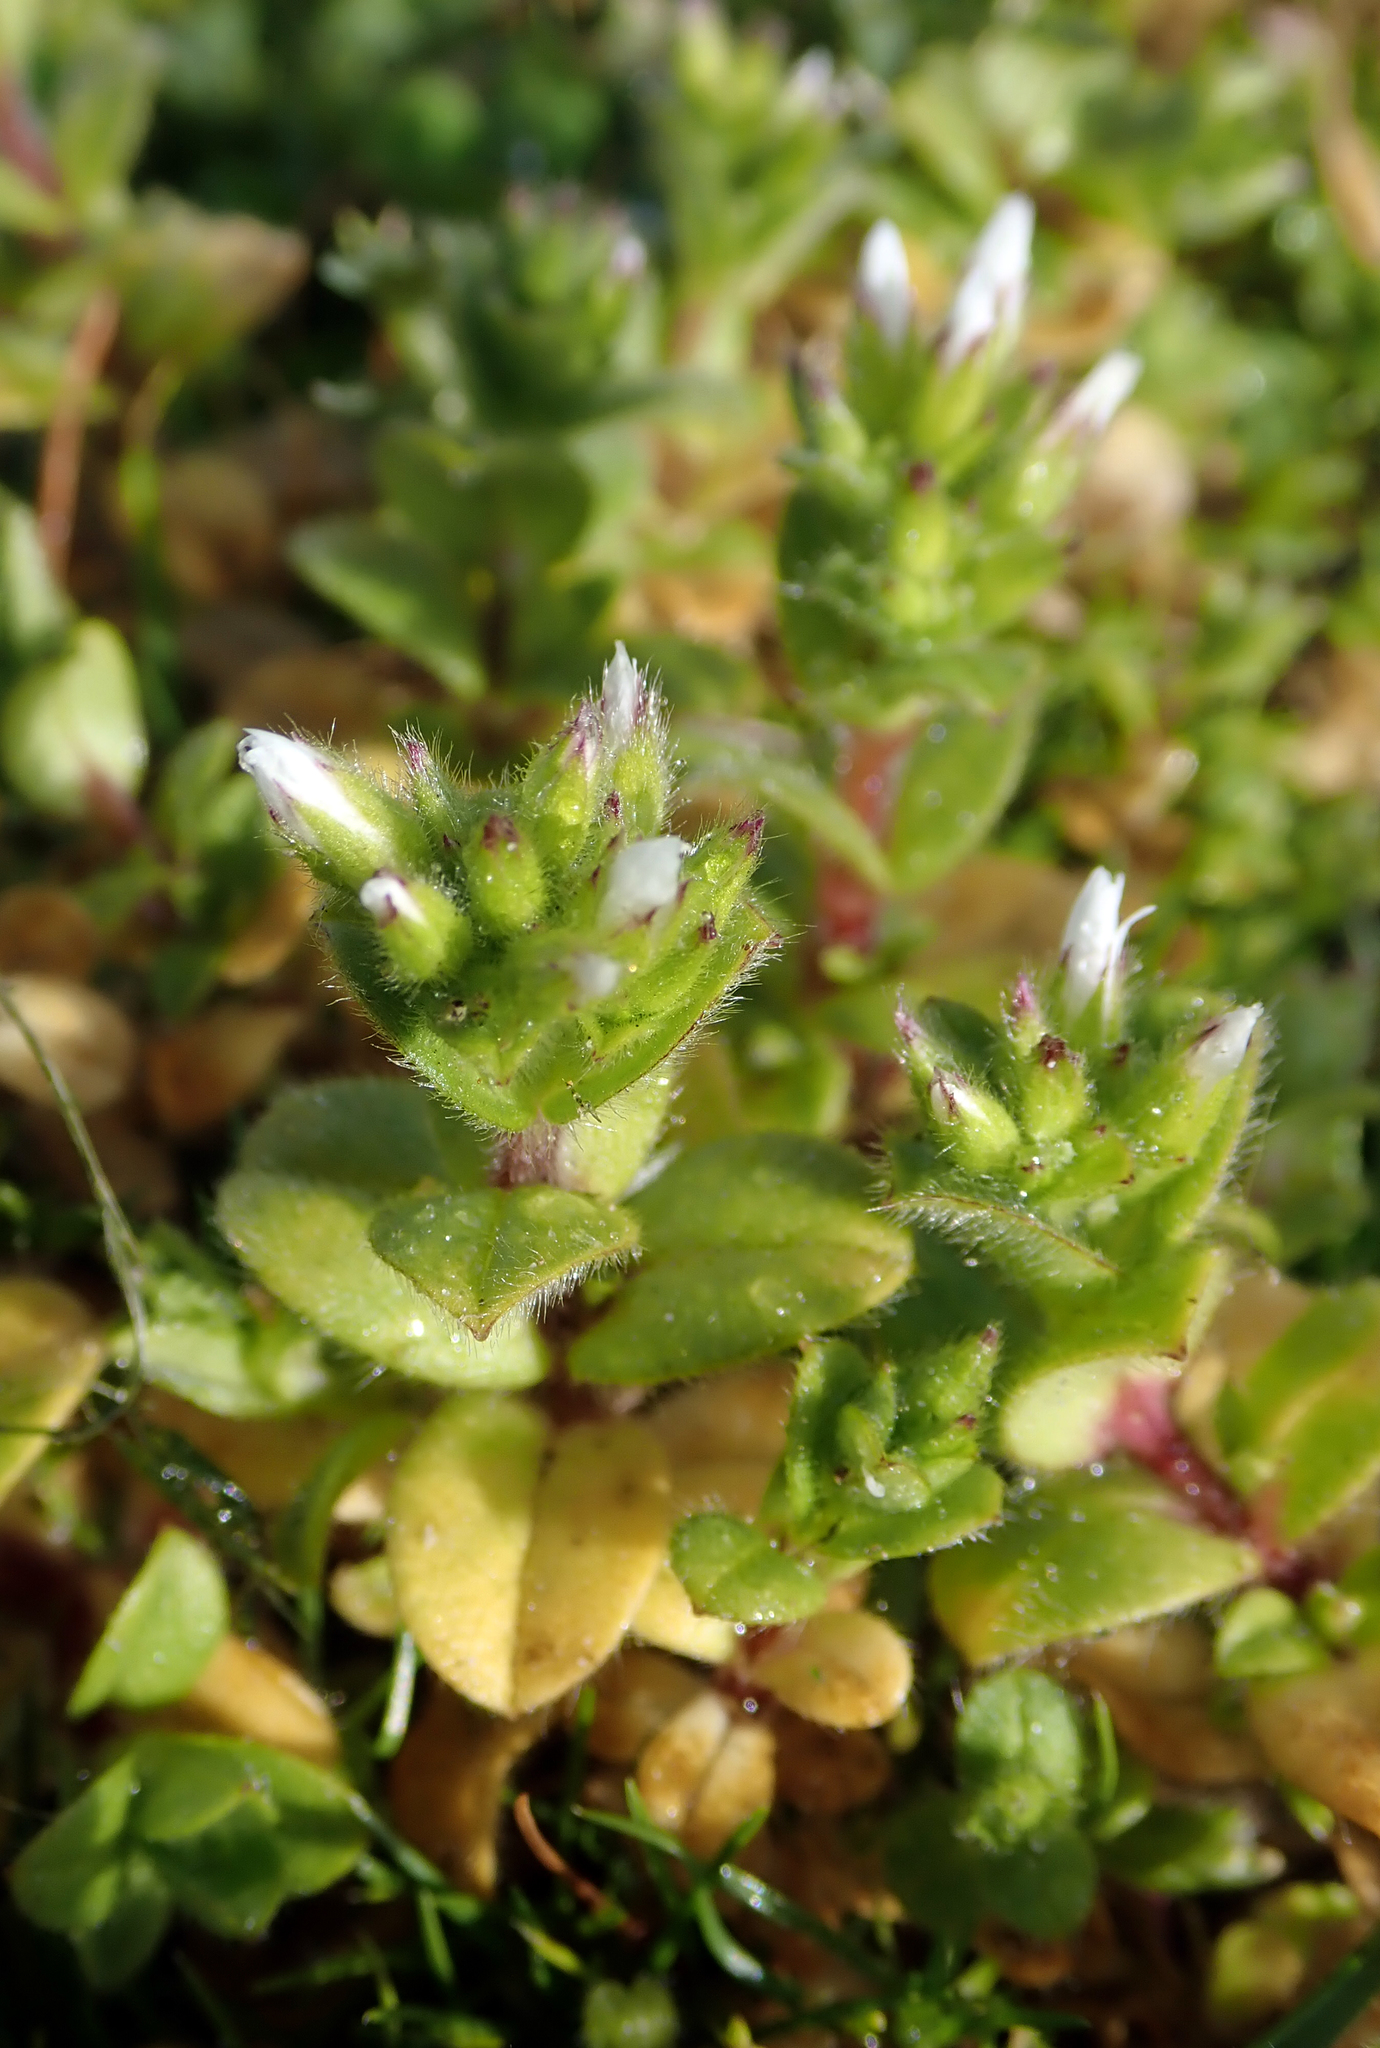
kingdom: Plantae
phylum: Tracheophyta
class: Magnoliopsida
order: Caryophyllales
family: Caryophyllaceae
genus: Cerastium
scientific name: Cerastium glomeratum
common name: Sticky chickweed
